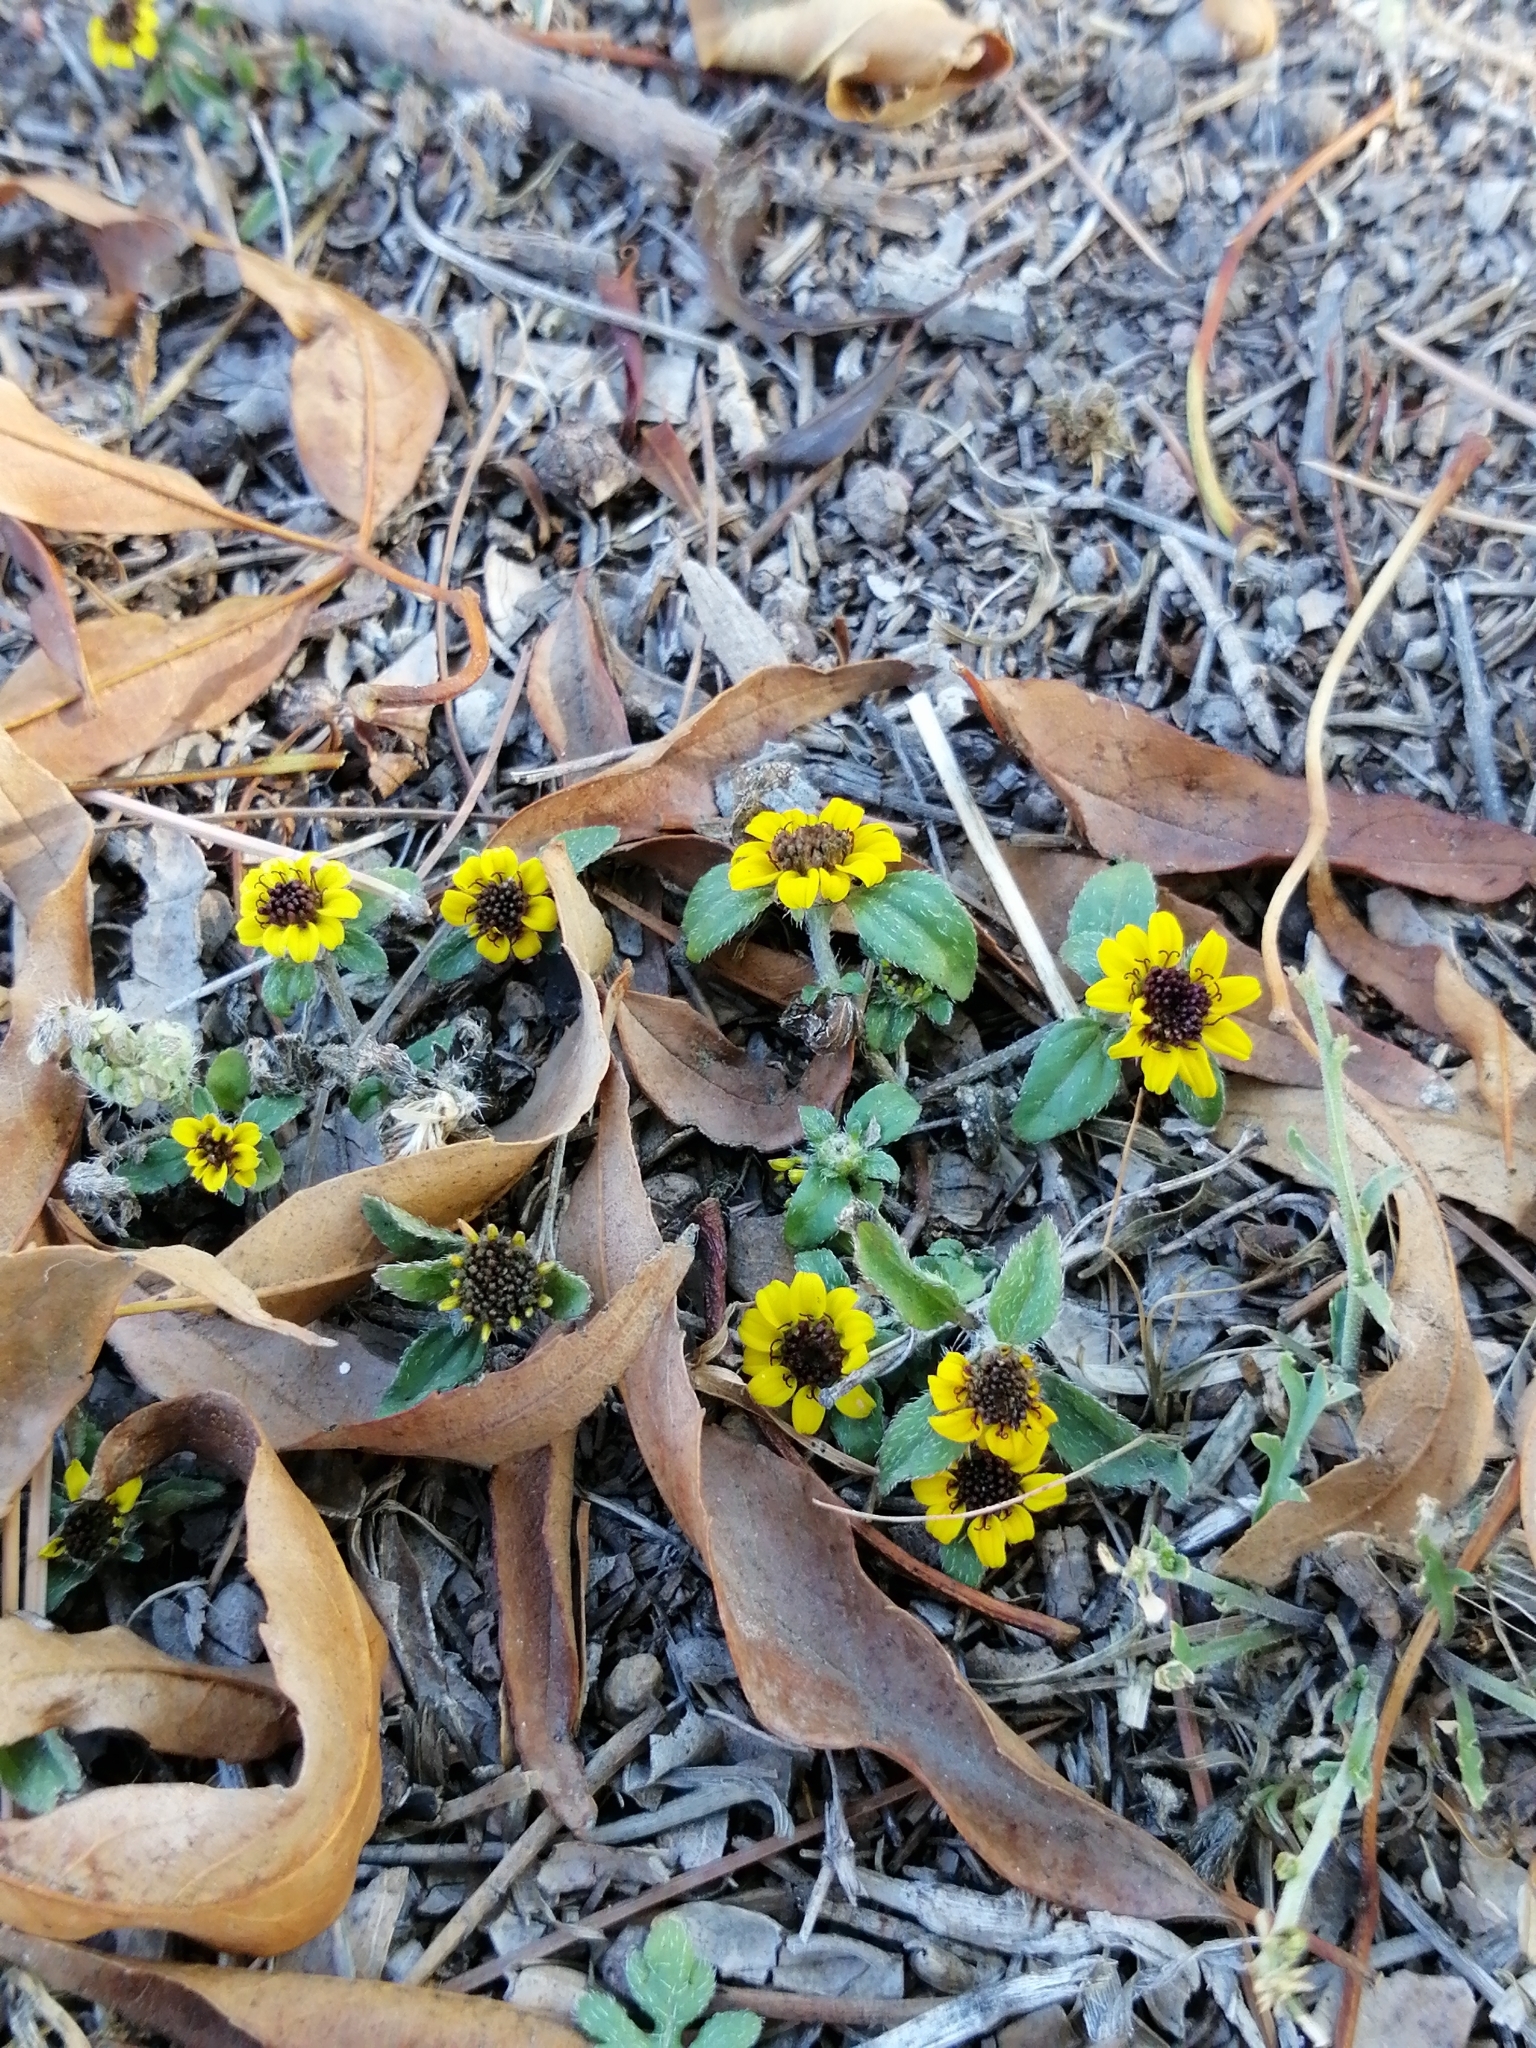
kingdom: Plantae
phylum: Tracheophyta
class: Magnoliopsida
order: Asterales
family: Asteraceae
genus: Sanvitalia
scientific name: Sanvitalia procumbens
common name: Mexican creeping zinnia
